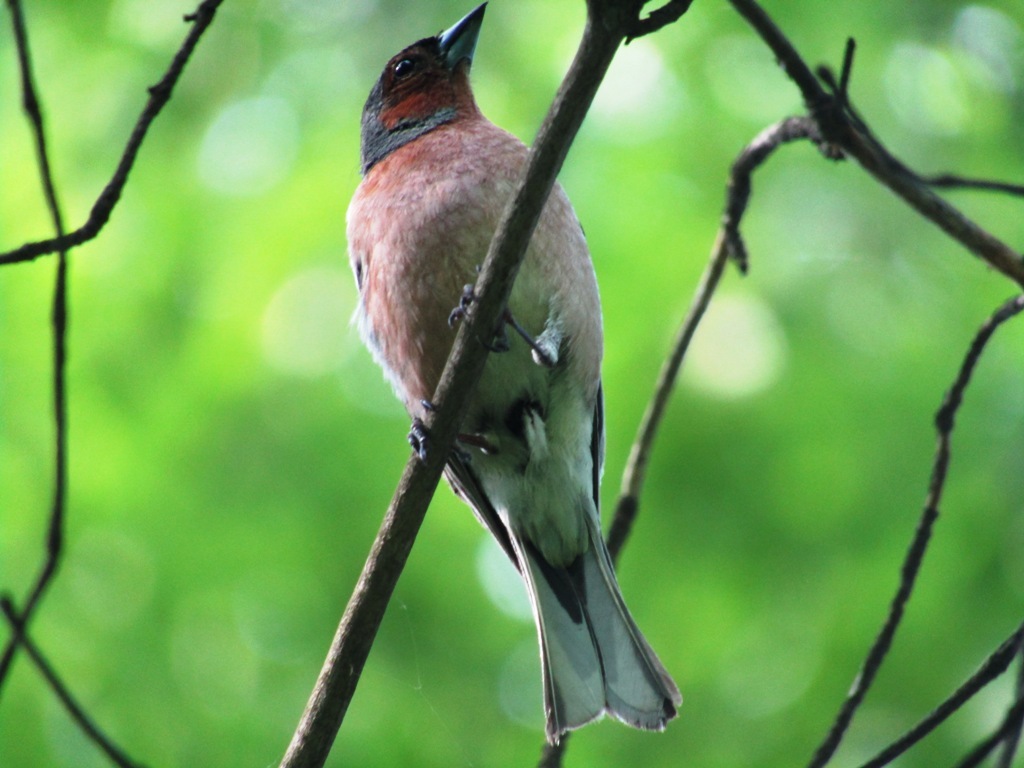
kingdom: Animalia
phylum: Chordata
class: Aves
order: Passeriformes
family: Fringillidae
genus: Fringilla
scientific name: Fringilla coelebs
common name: Common chaffinch
